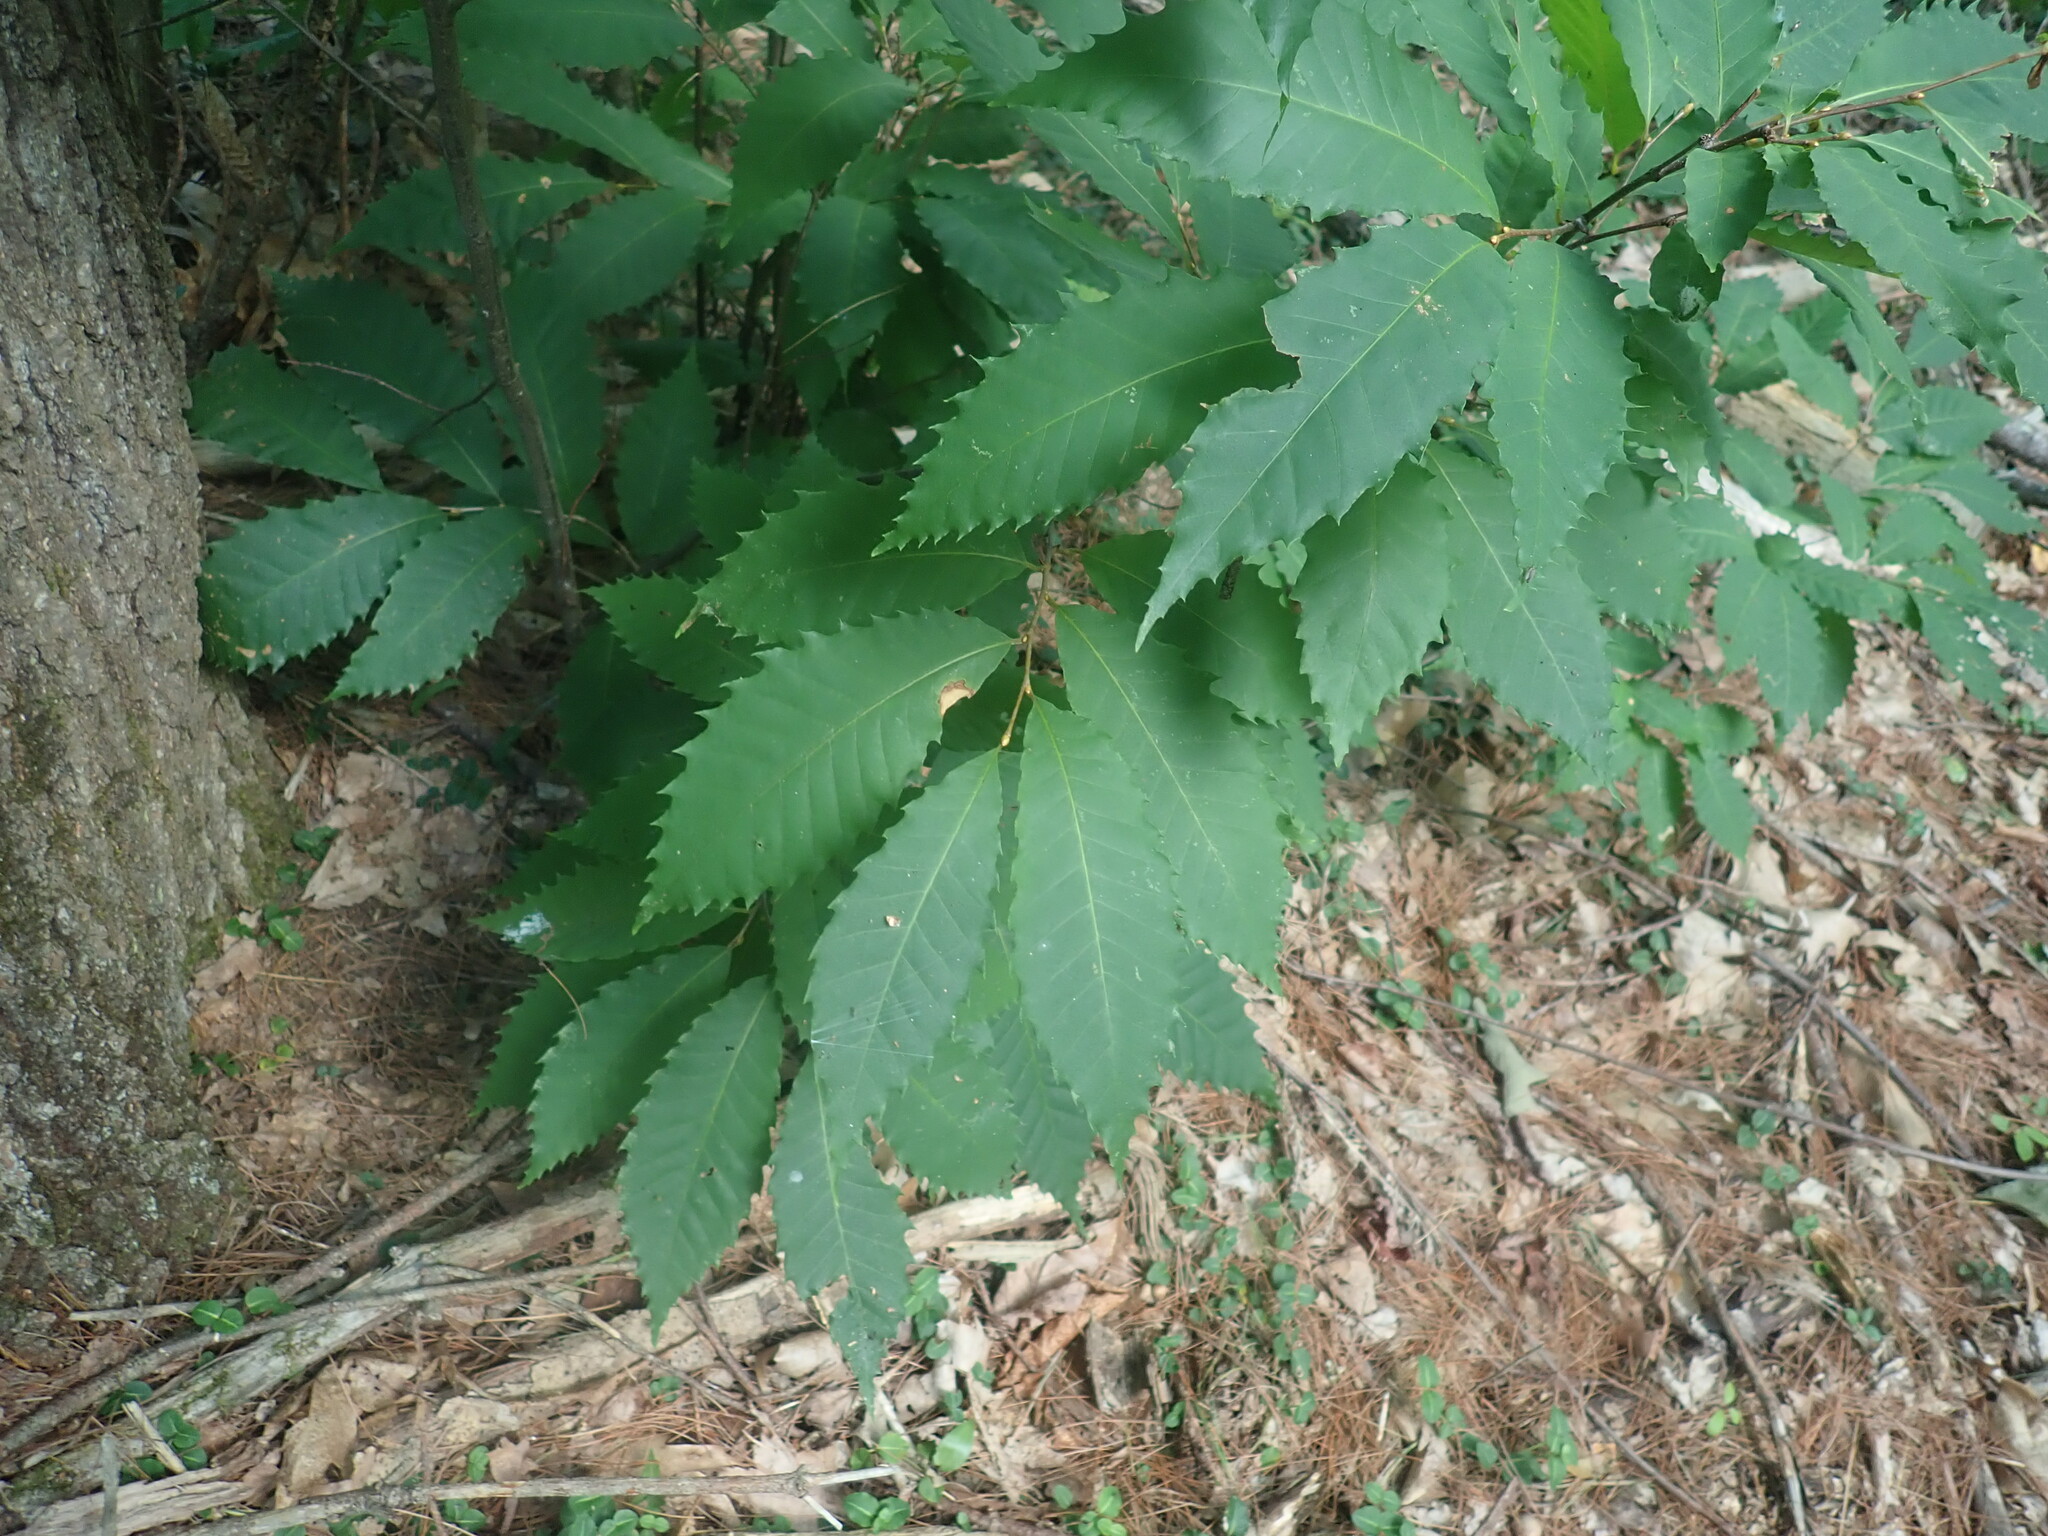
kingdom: Plantae
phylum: Tracheophyta
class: Magnoliopsida
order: Fagales
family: Fagaceae
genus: Castanea
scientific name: Castanea dentata
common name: American chestnut
